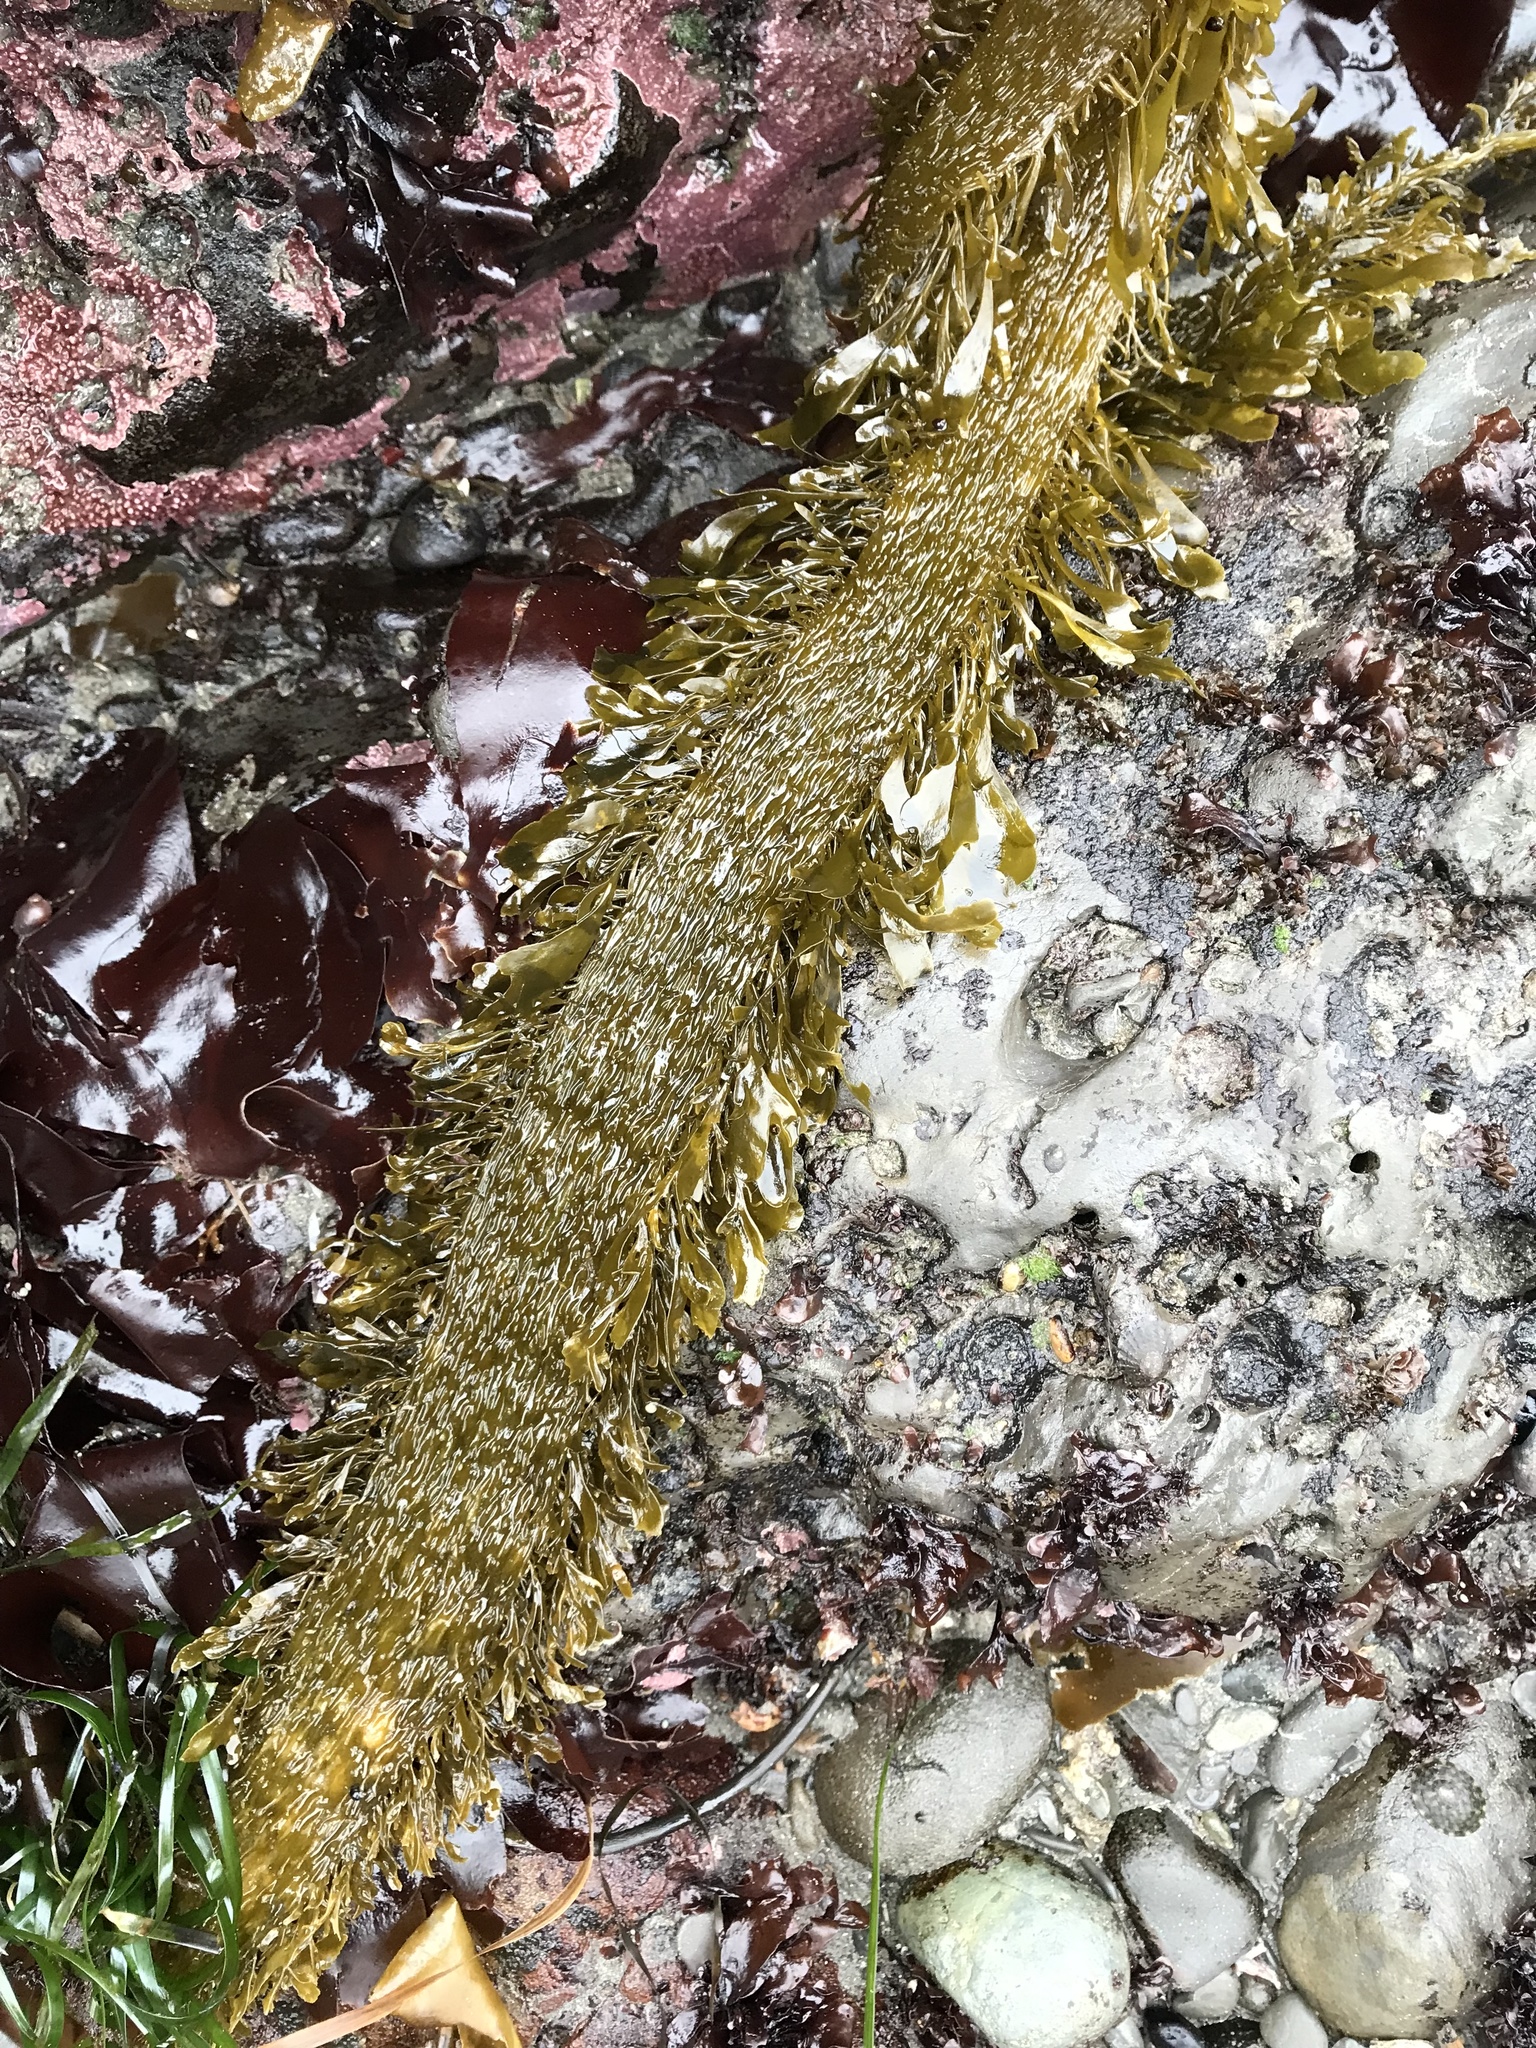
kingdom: Chromista
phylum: Ochrophyta
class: Phaeophyceae
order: Laminariales
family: Lessoniaceae
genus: Egregia
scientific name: Egregia menziesii
